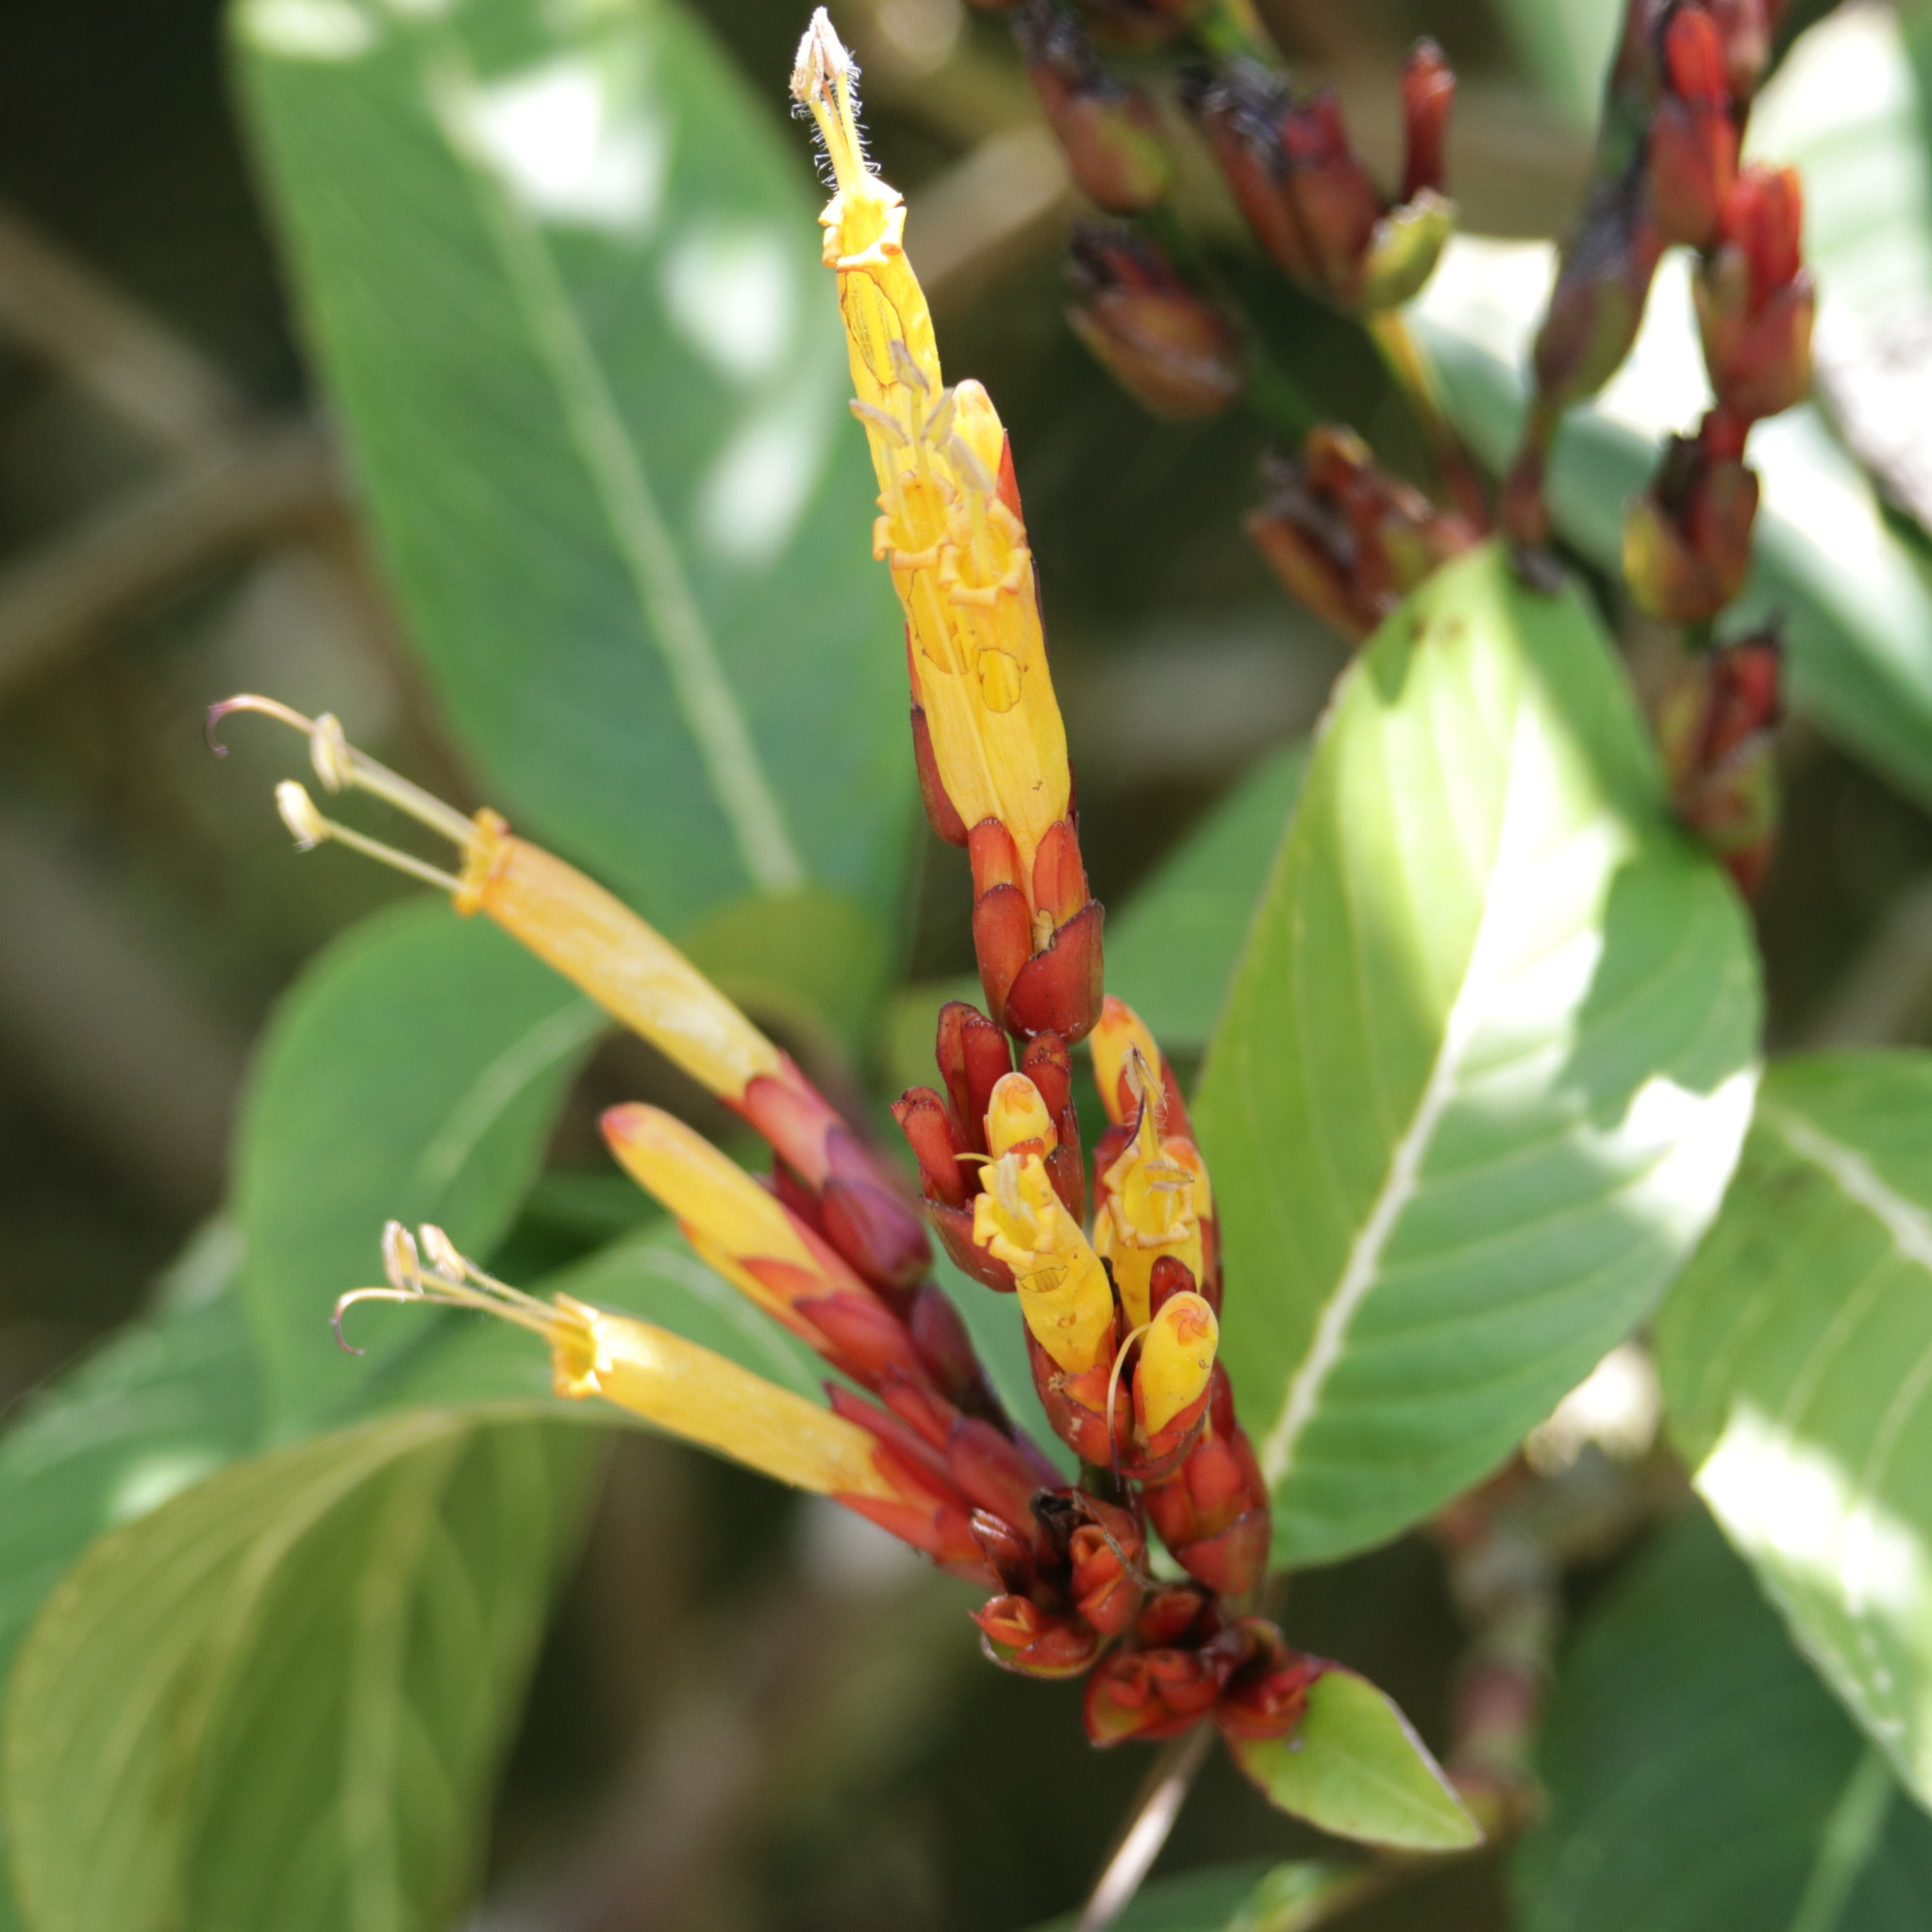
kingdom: Plantae
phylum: Tracheophyta
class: Magnoliopsida
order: Lamiales
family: Acanthaceae
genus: Sanchezia
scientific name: Sanchezia parvibracteata
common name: Sanchezia
